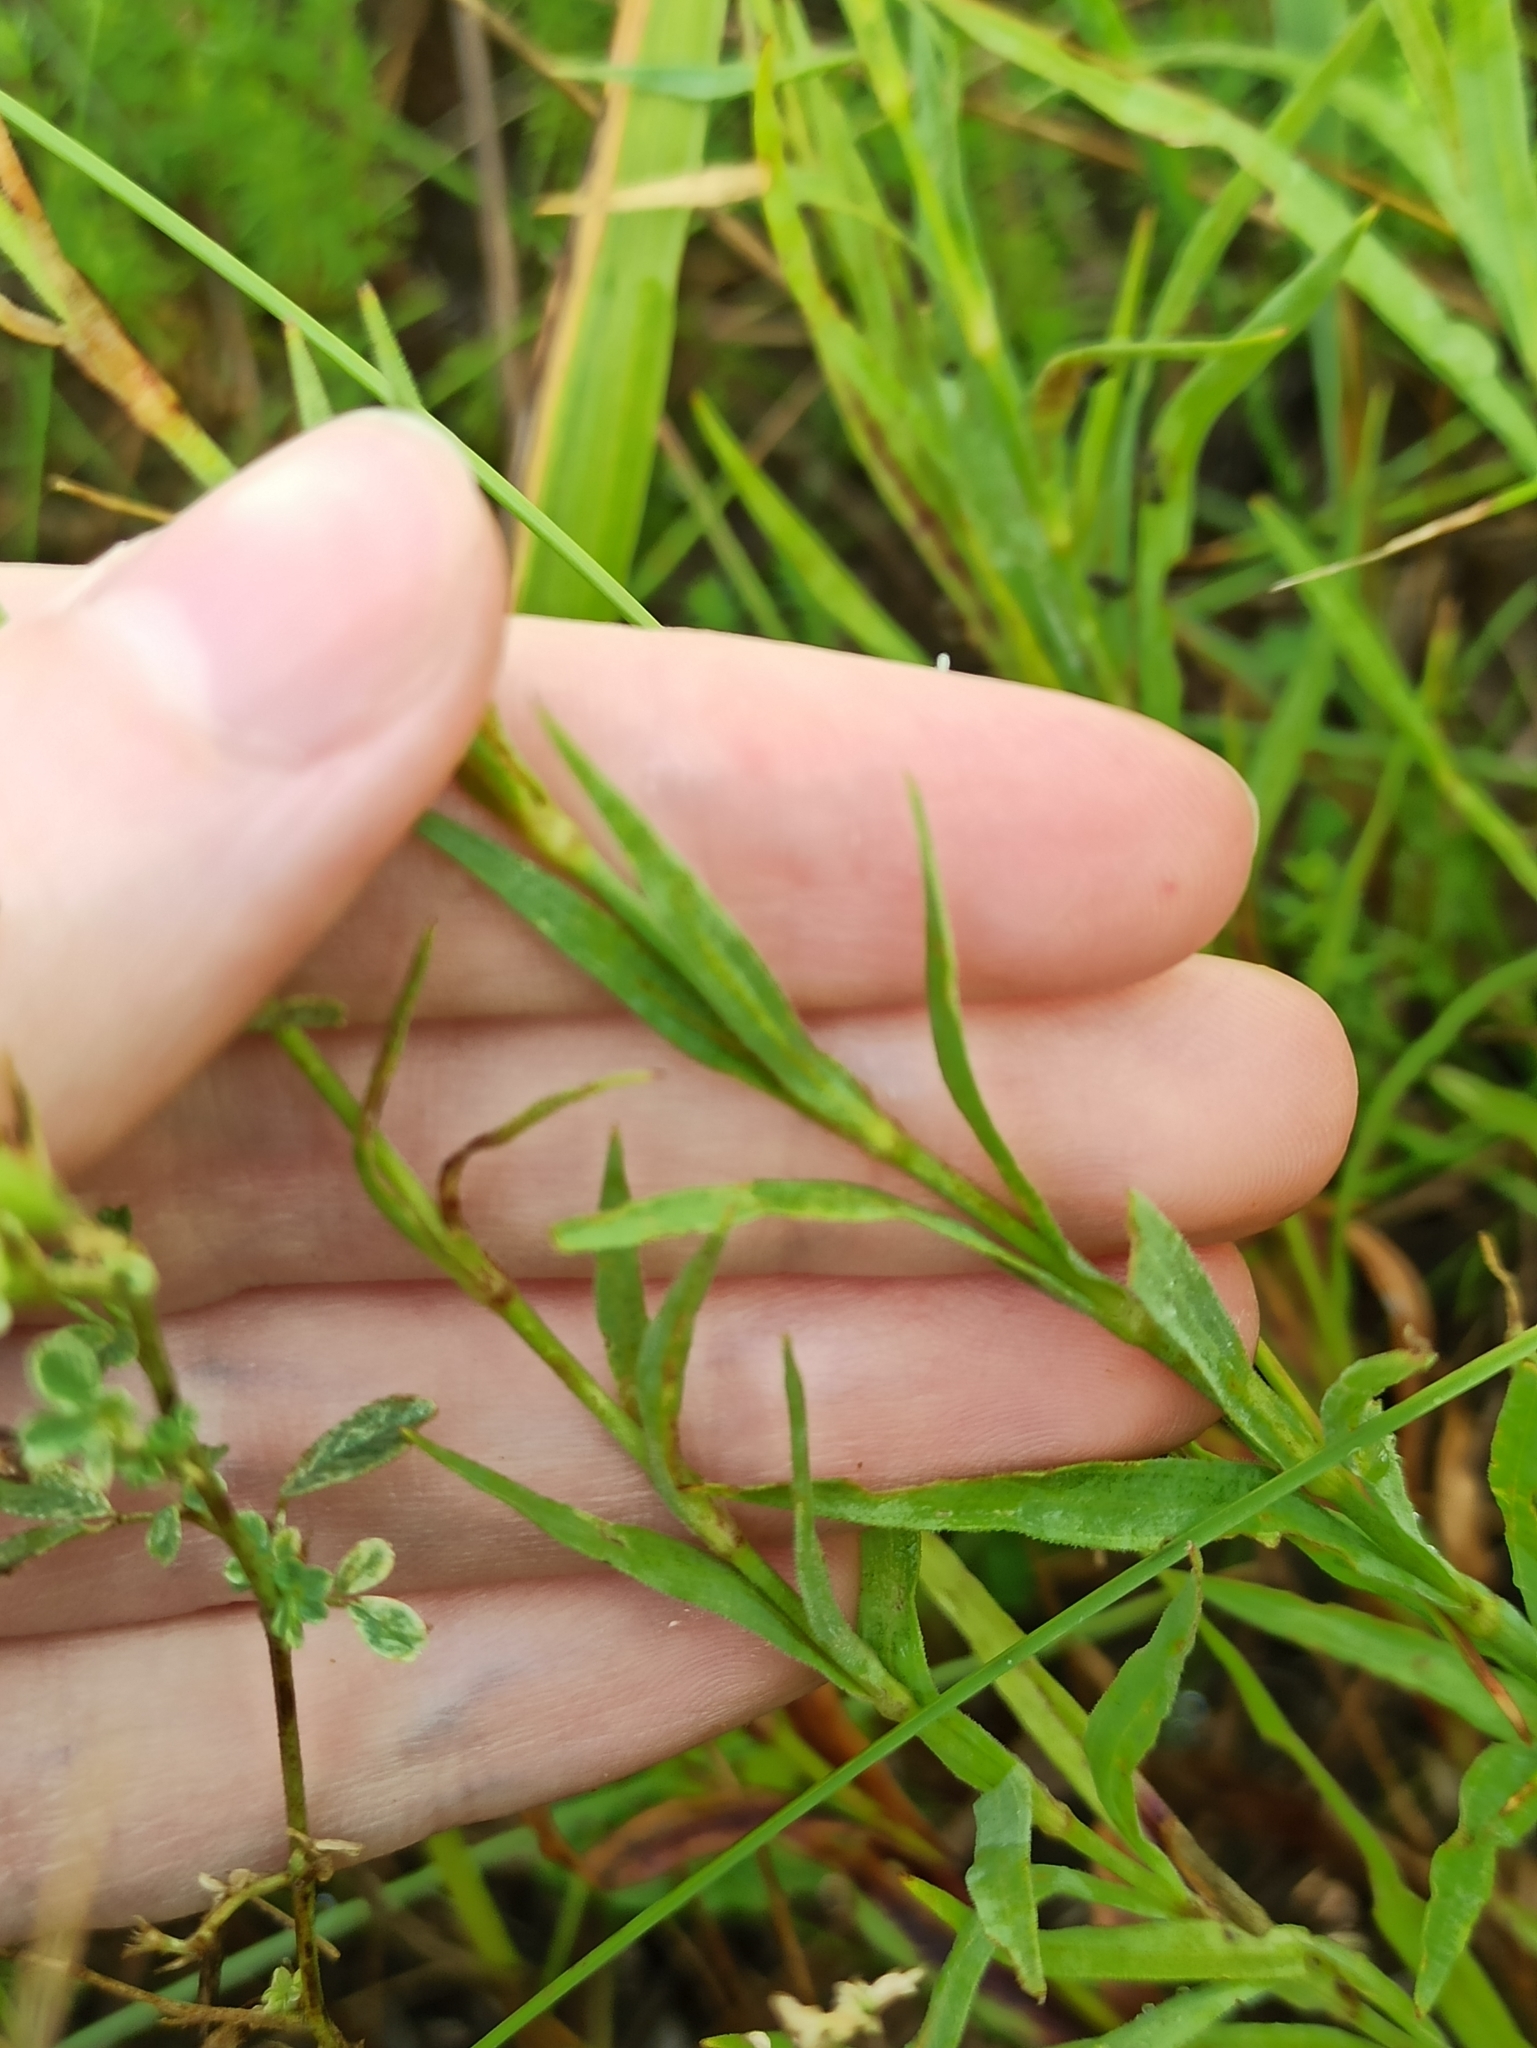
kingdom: Plantae
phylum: Tracheophyta
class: Magnoliopsida
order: Caryophyllales
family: Caryophyllaceae
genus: Dianthus
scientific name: Dianthus chinensis
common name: Rainbow pink
